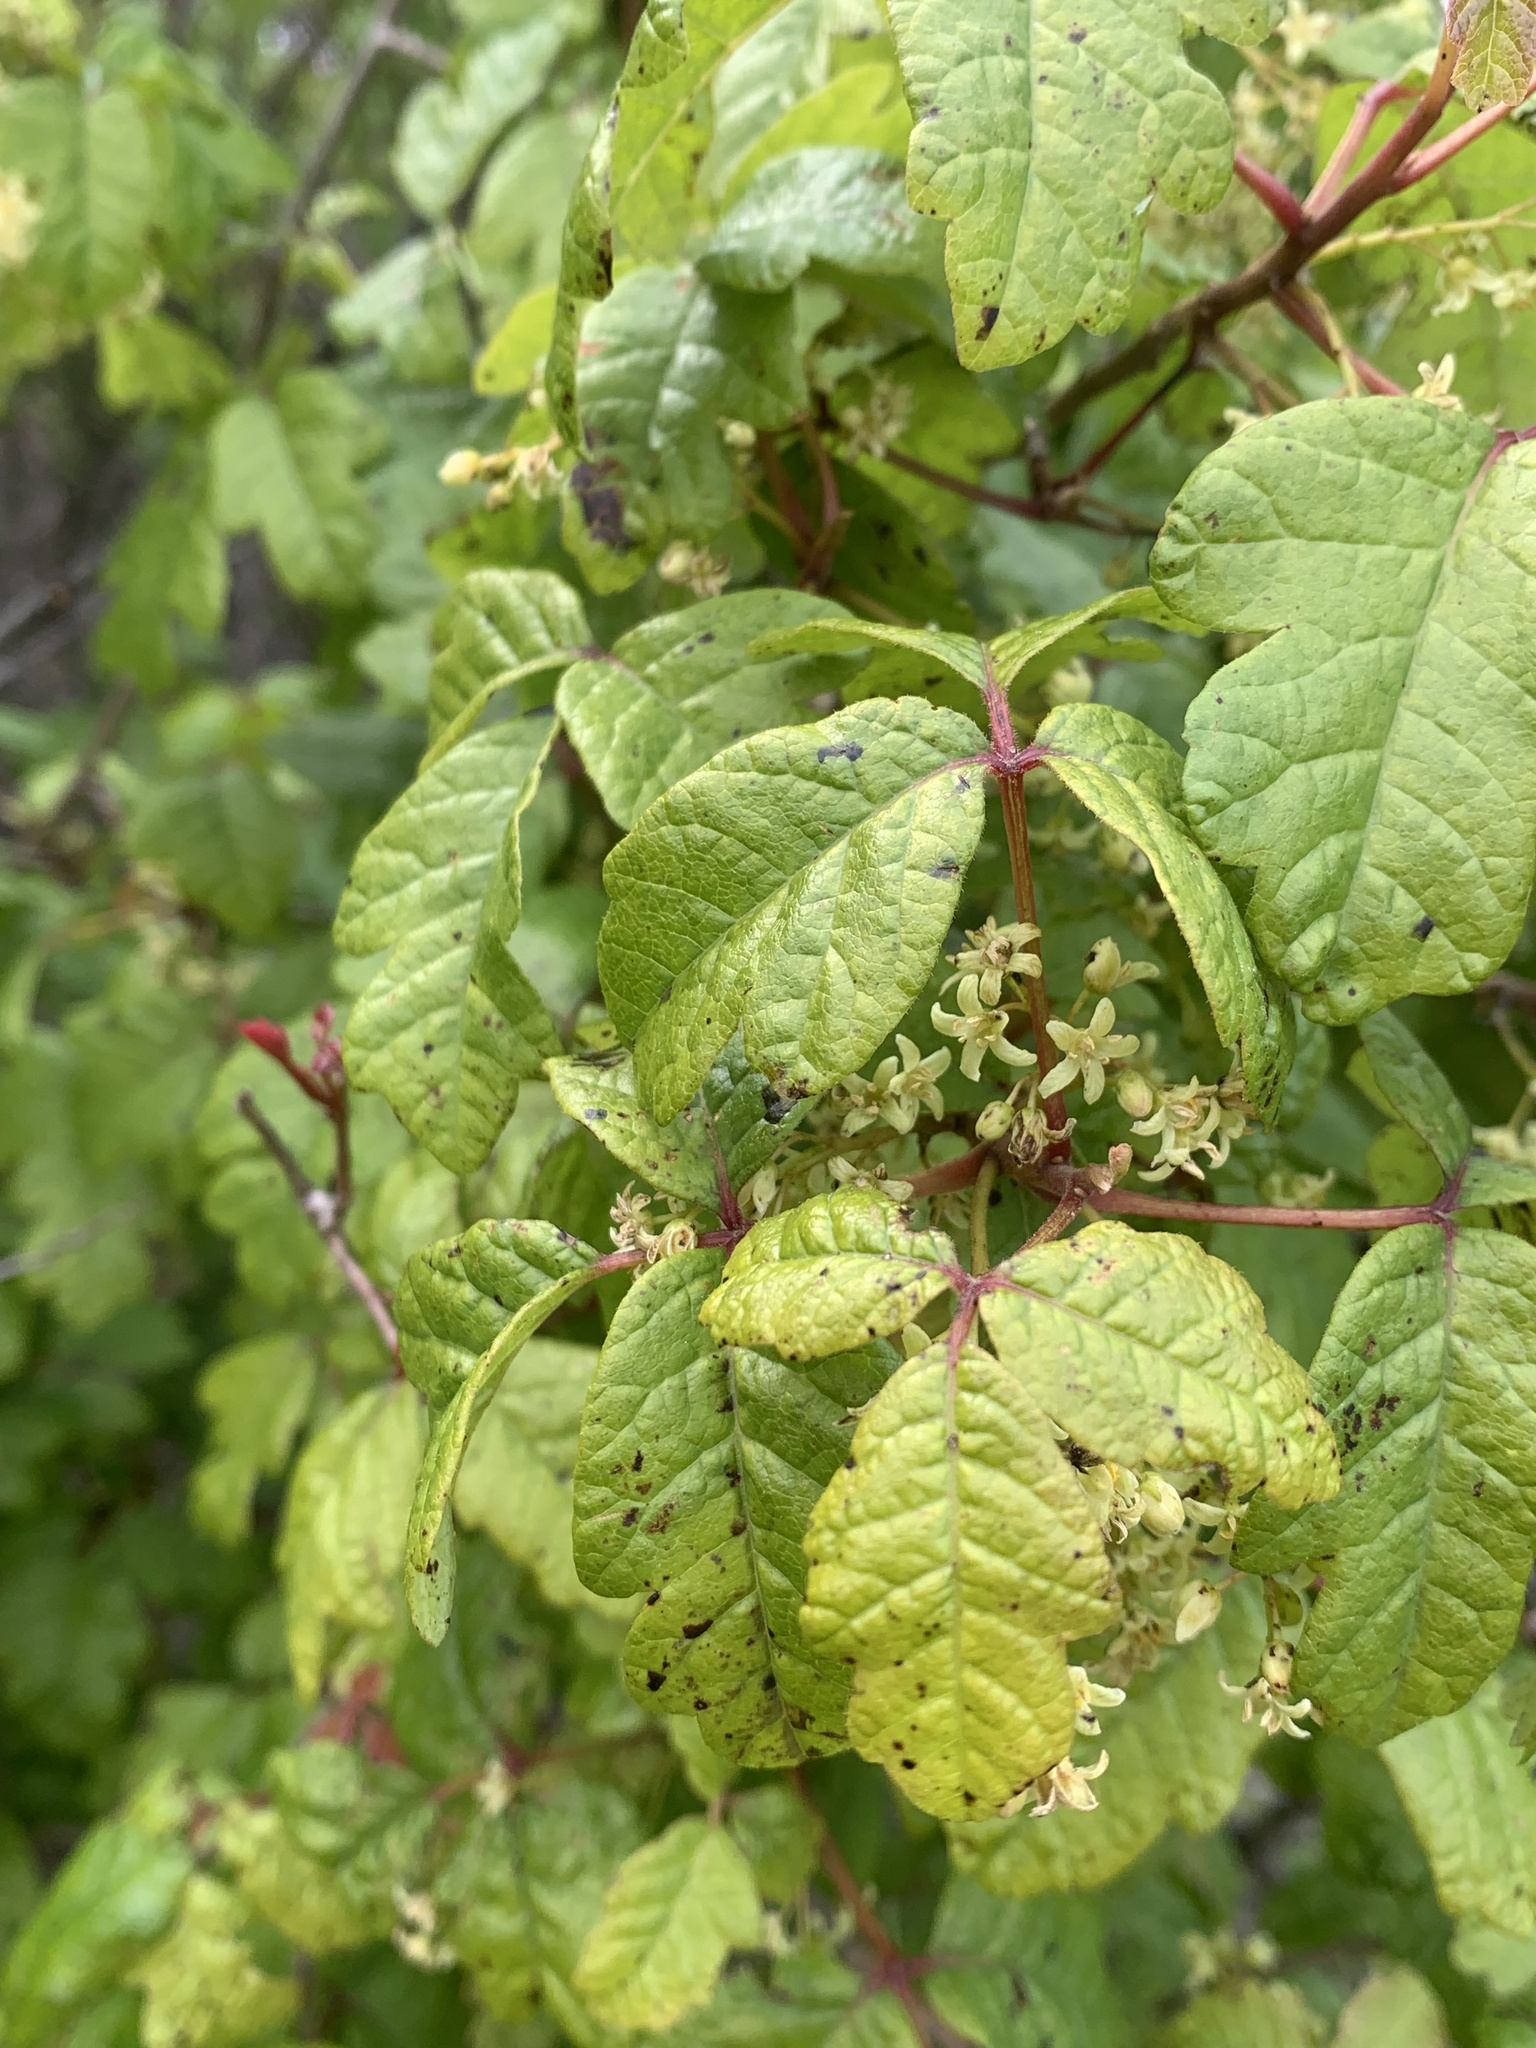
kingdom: Plantae
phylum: Tracheophyta
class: Magnoliopsida
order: Sapindales
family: Anacardiaceae
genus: Toxicodendron
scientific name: Toxicodendron diversilobum
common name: Pacific poison-oak
